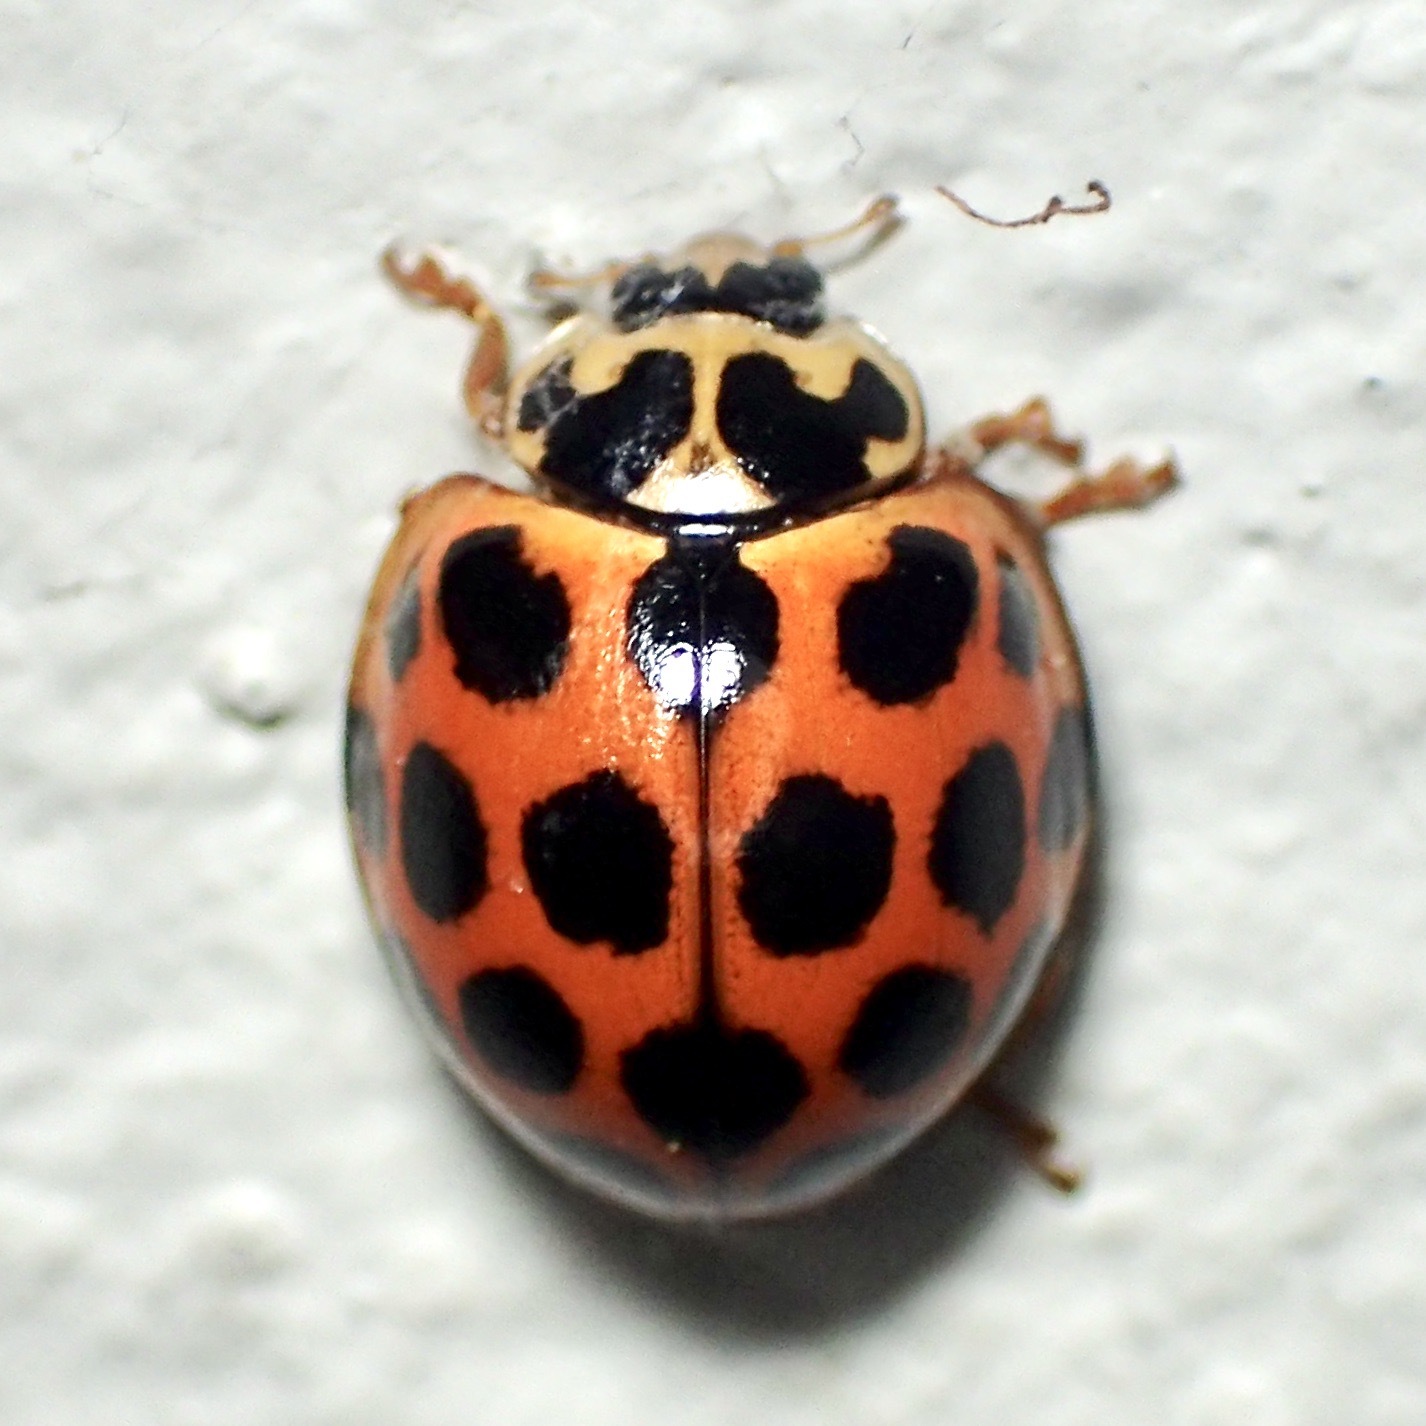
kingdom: Animalia
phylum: Arthropoda
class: Insecta
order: Coleoptera
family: Coccinellidae
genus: Harmonia
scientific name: Harmonia conformis
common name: Common spotted ladybird beetle
